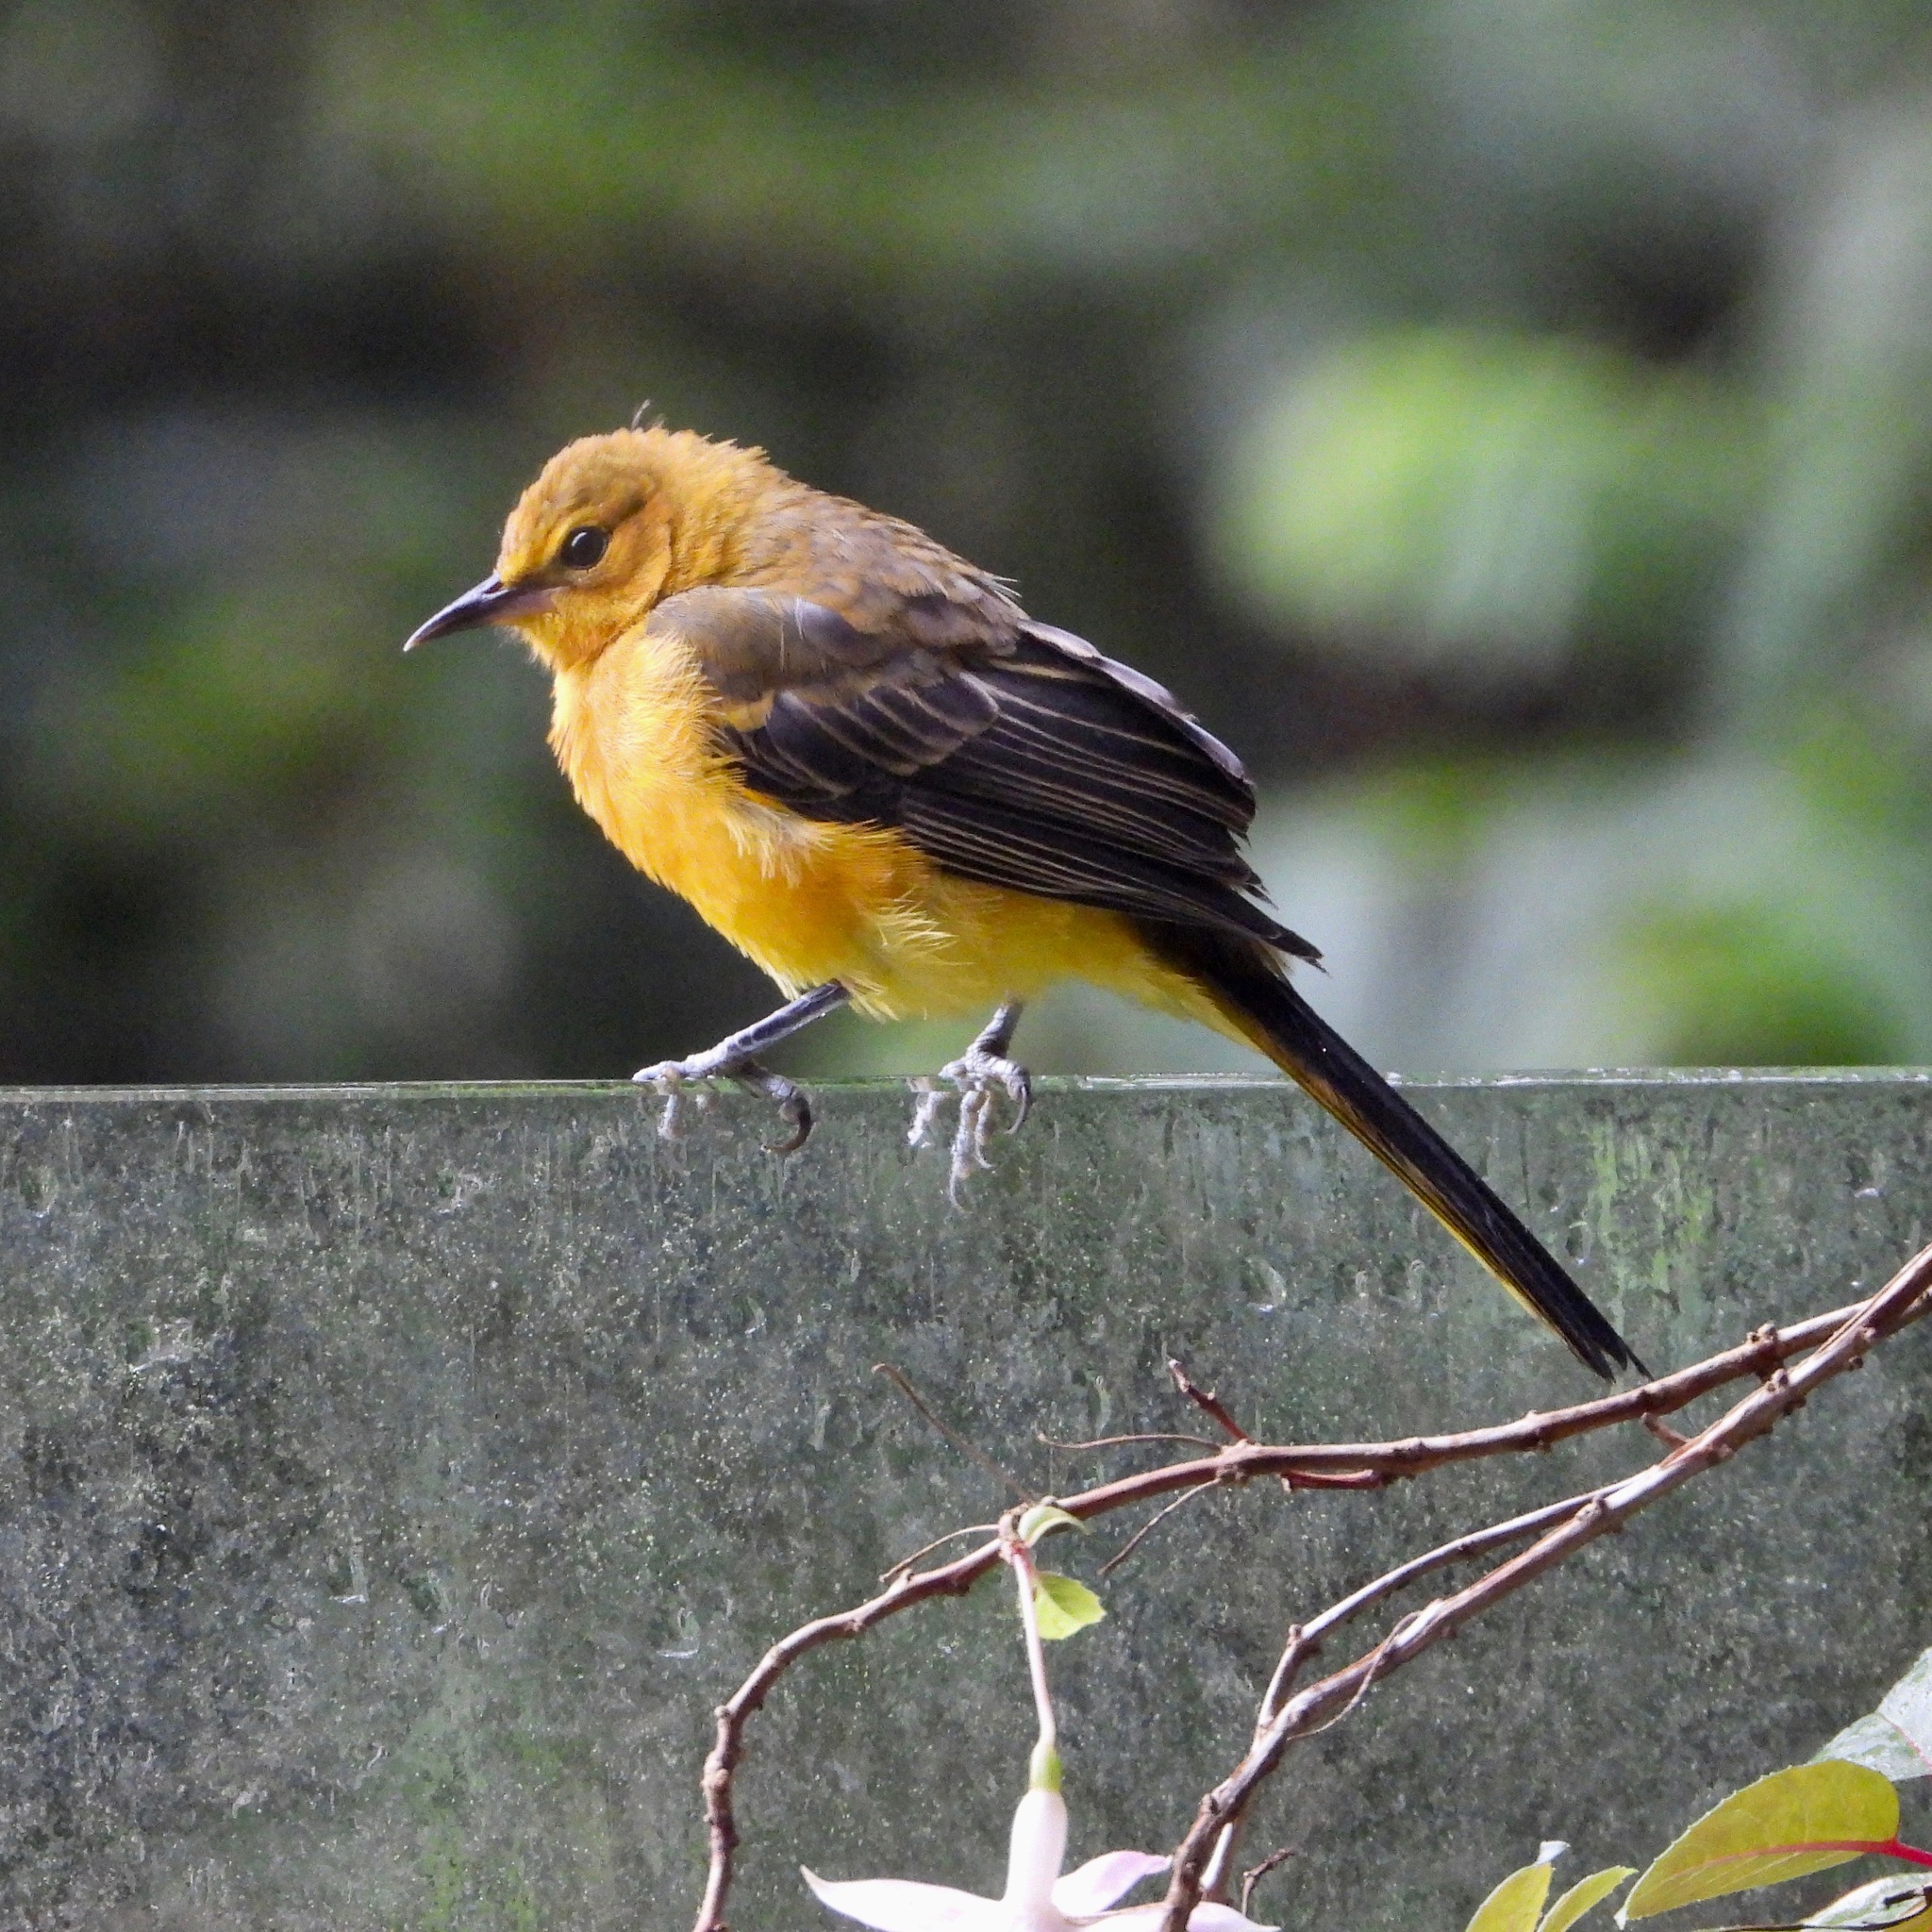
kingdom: Animalia
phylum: Chordata
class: Aves
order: Passeriformes
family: Icteridae
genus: Icterus
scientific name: Icterus wagleri
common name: Black-vented oriole
